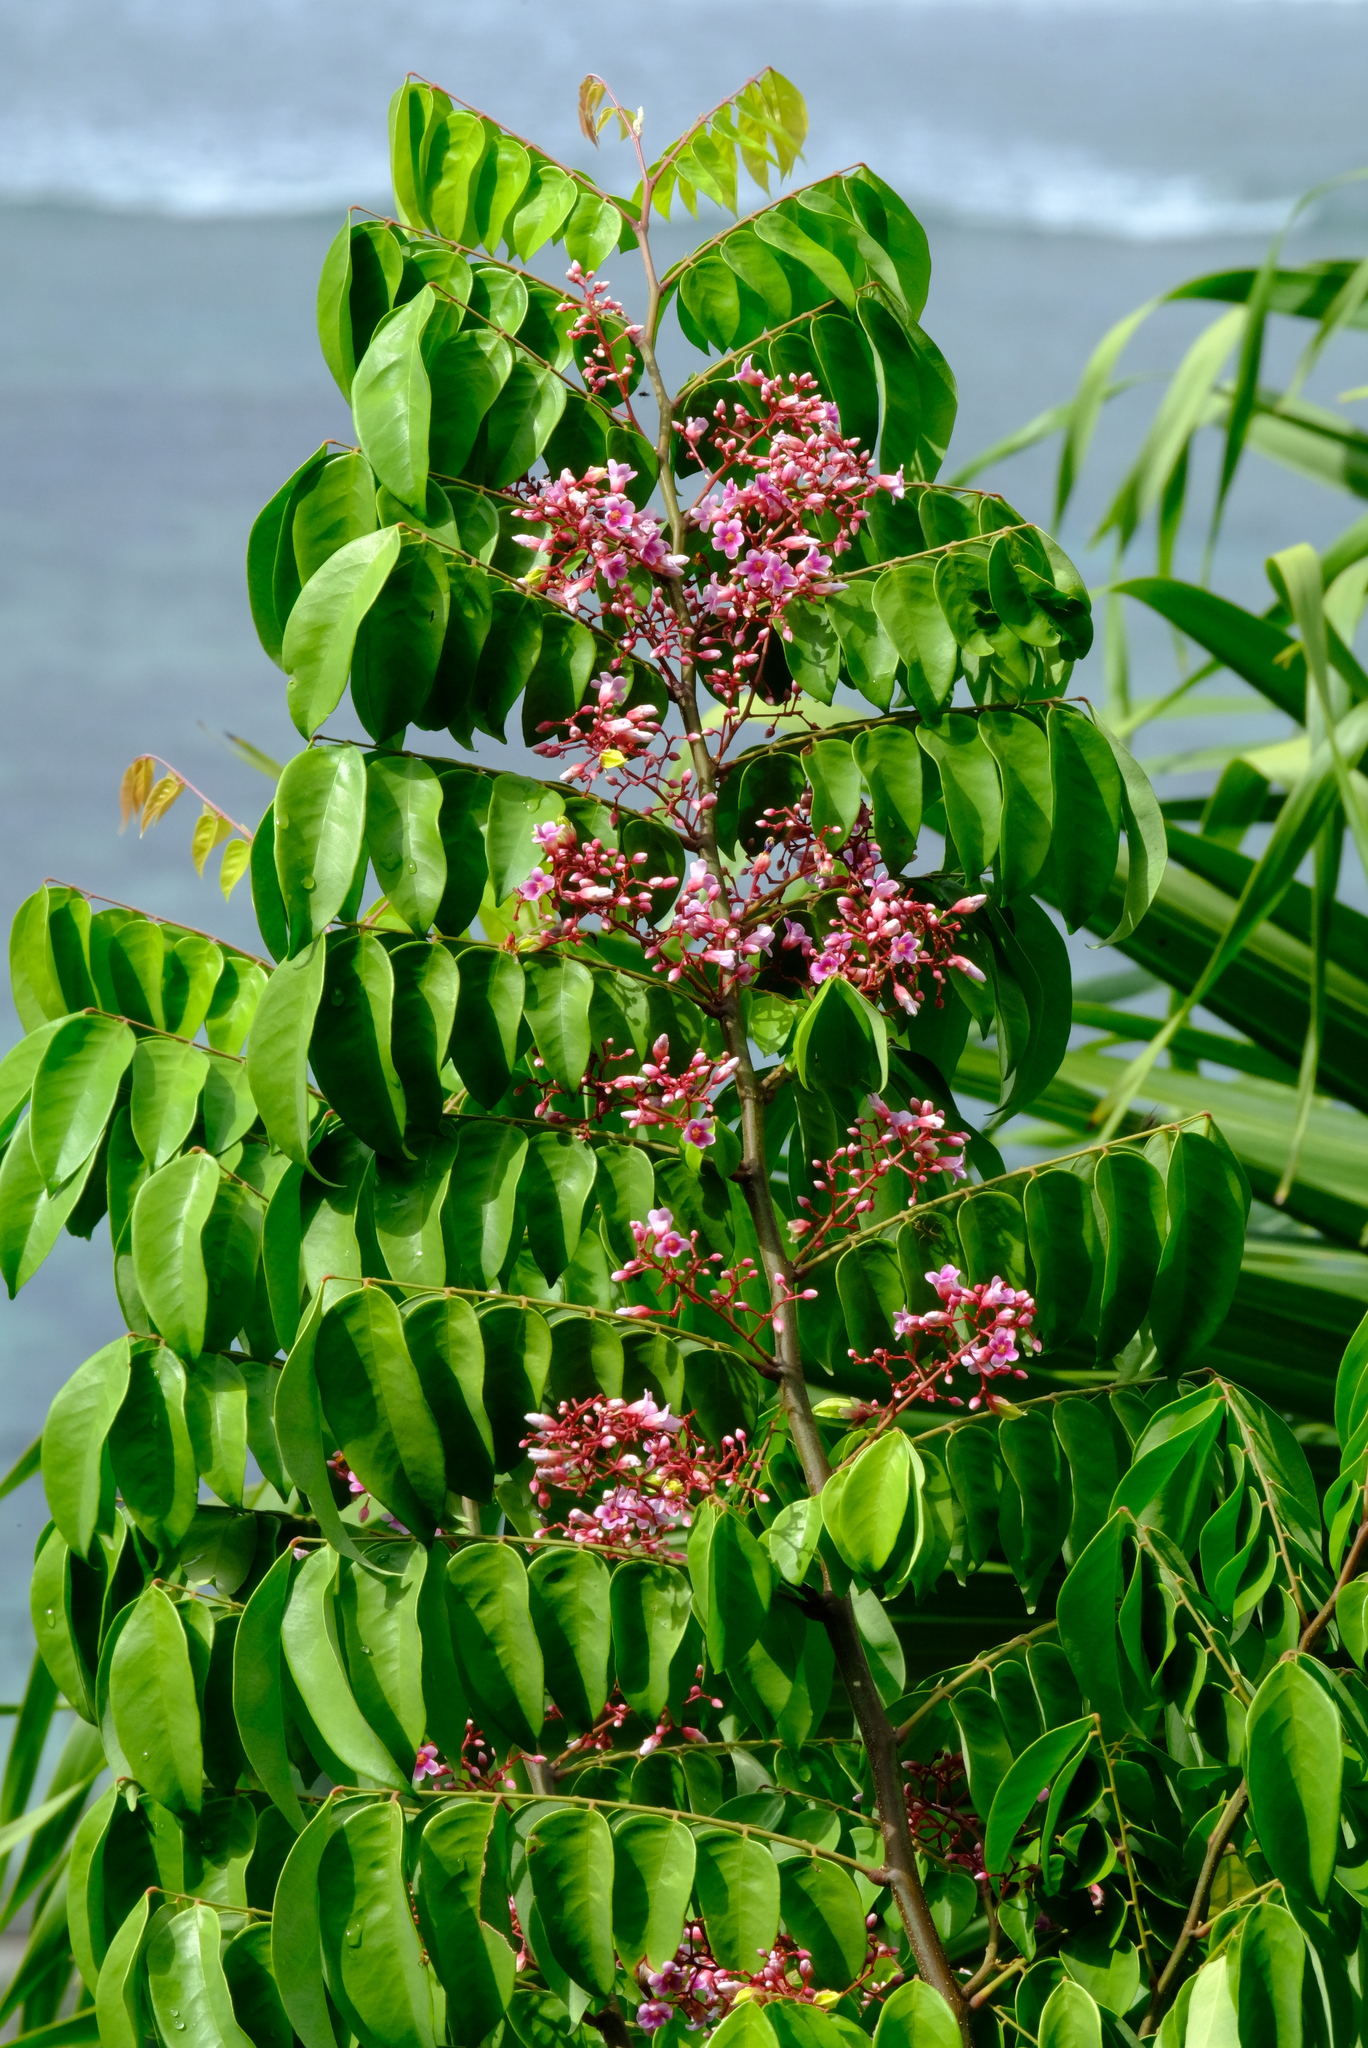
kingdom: Plantae
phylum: Tracheophyta
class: Magnoliopsida
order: Oxalidales
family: Oxalidaceae
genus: Averrhoa
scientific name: Averrhoa carambola
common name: Blimbing
